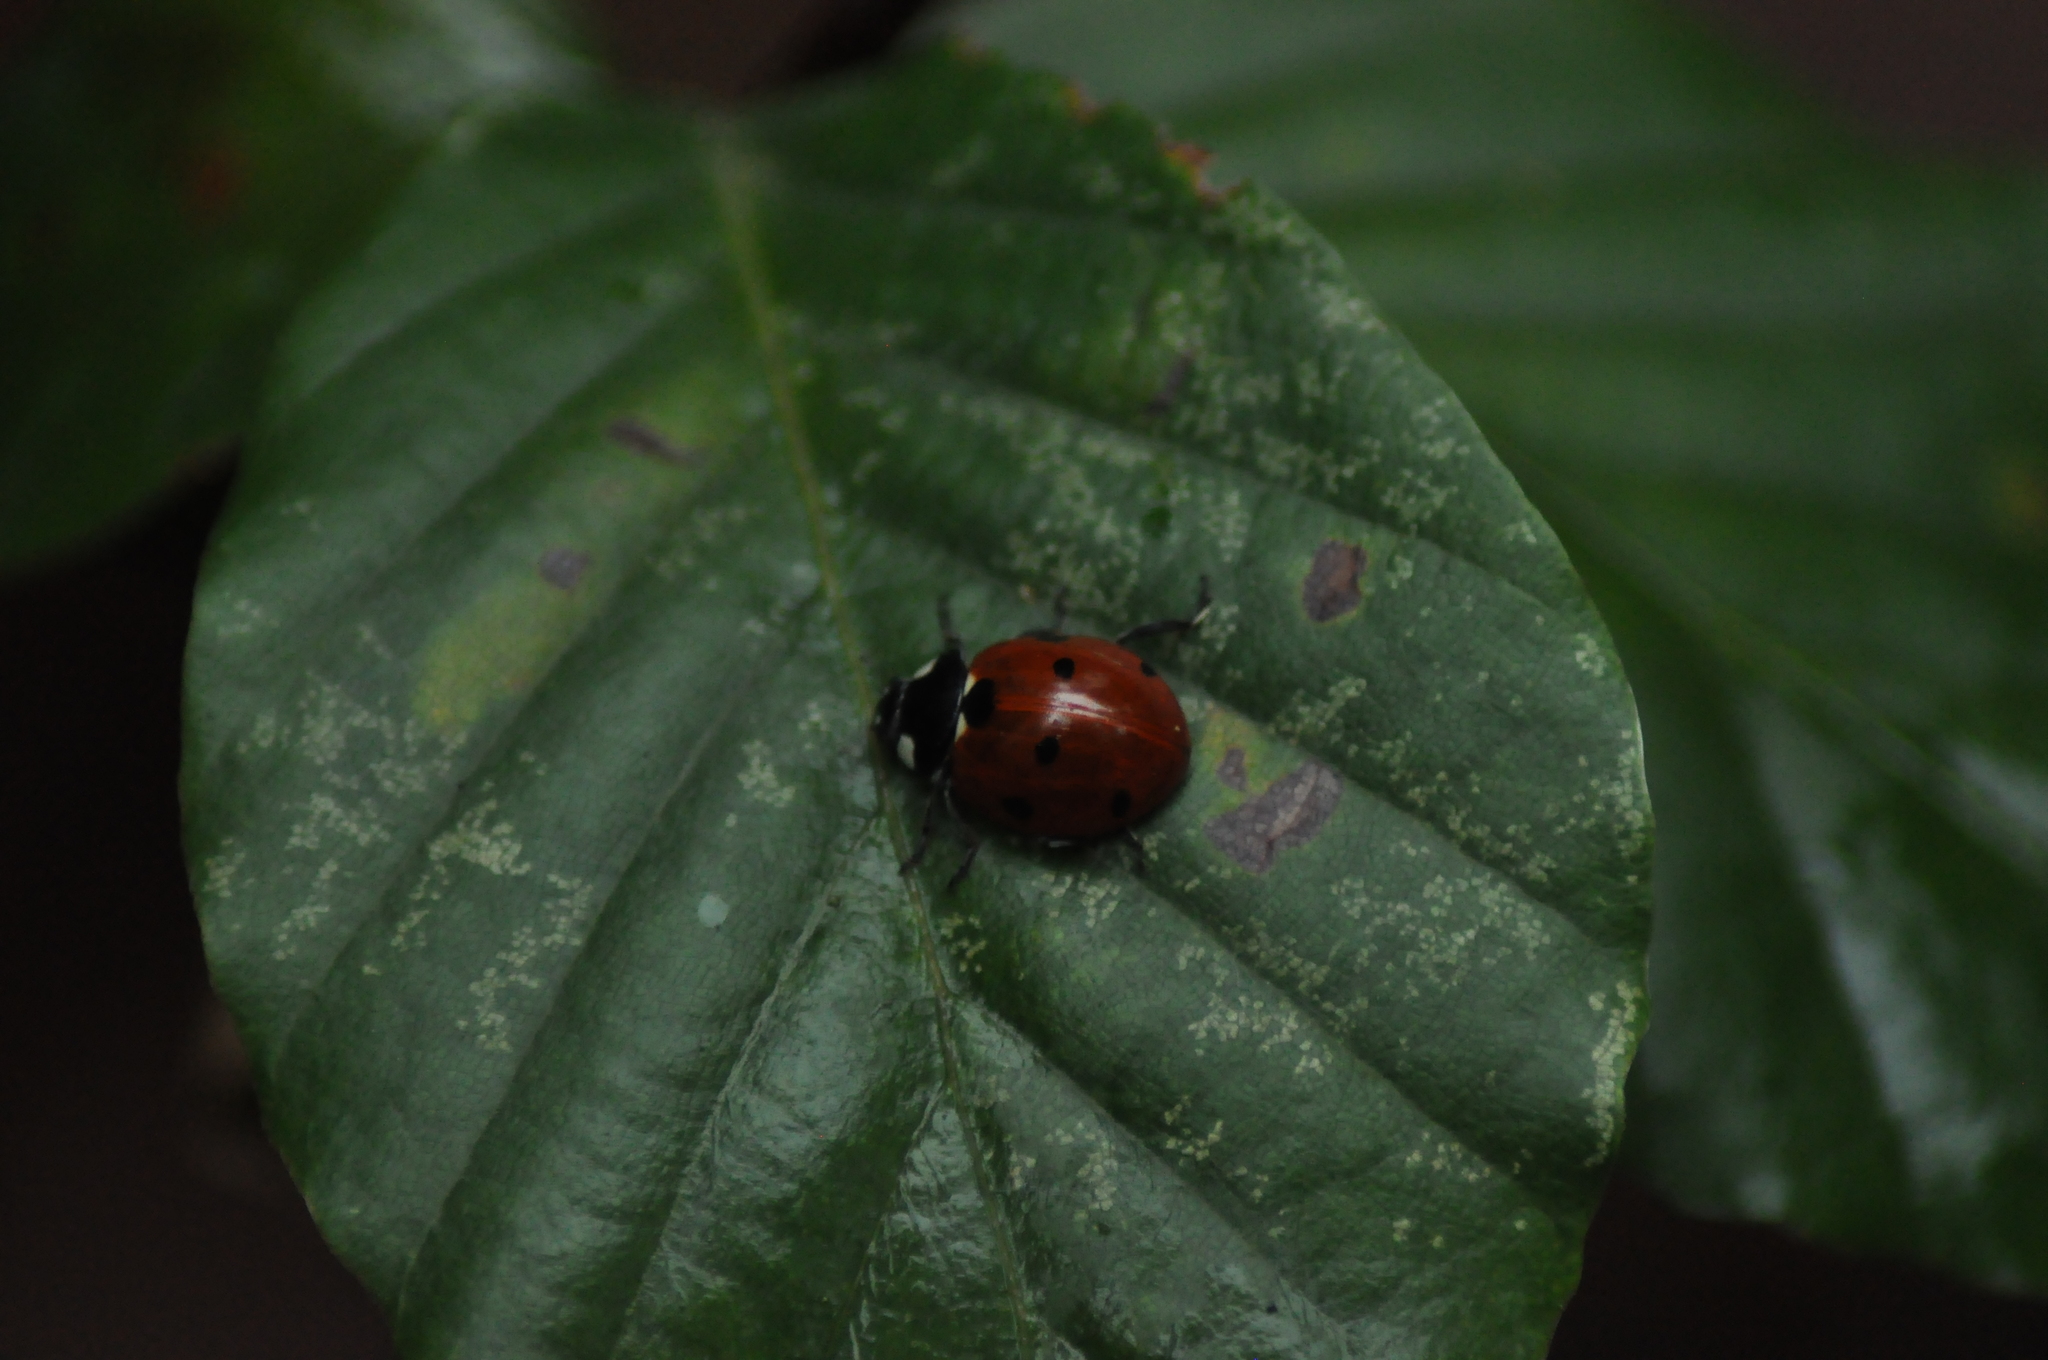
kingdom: Animalia
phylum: Arthropoda
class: Insecta
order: Coleoptera
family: Coccinellidae
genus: Coccinella
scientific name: Coccinella septempunctata
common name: Sevenspotted lady beetle
